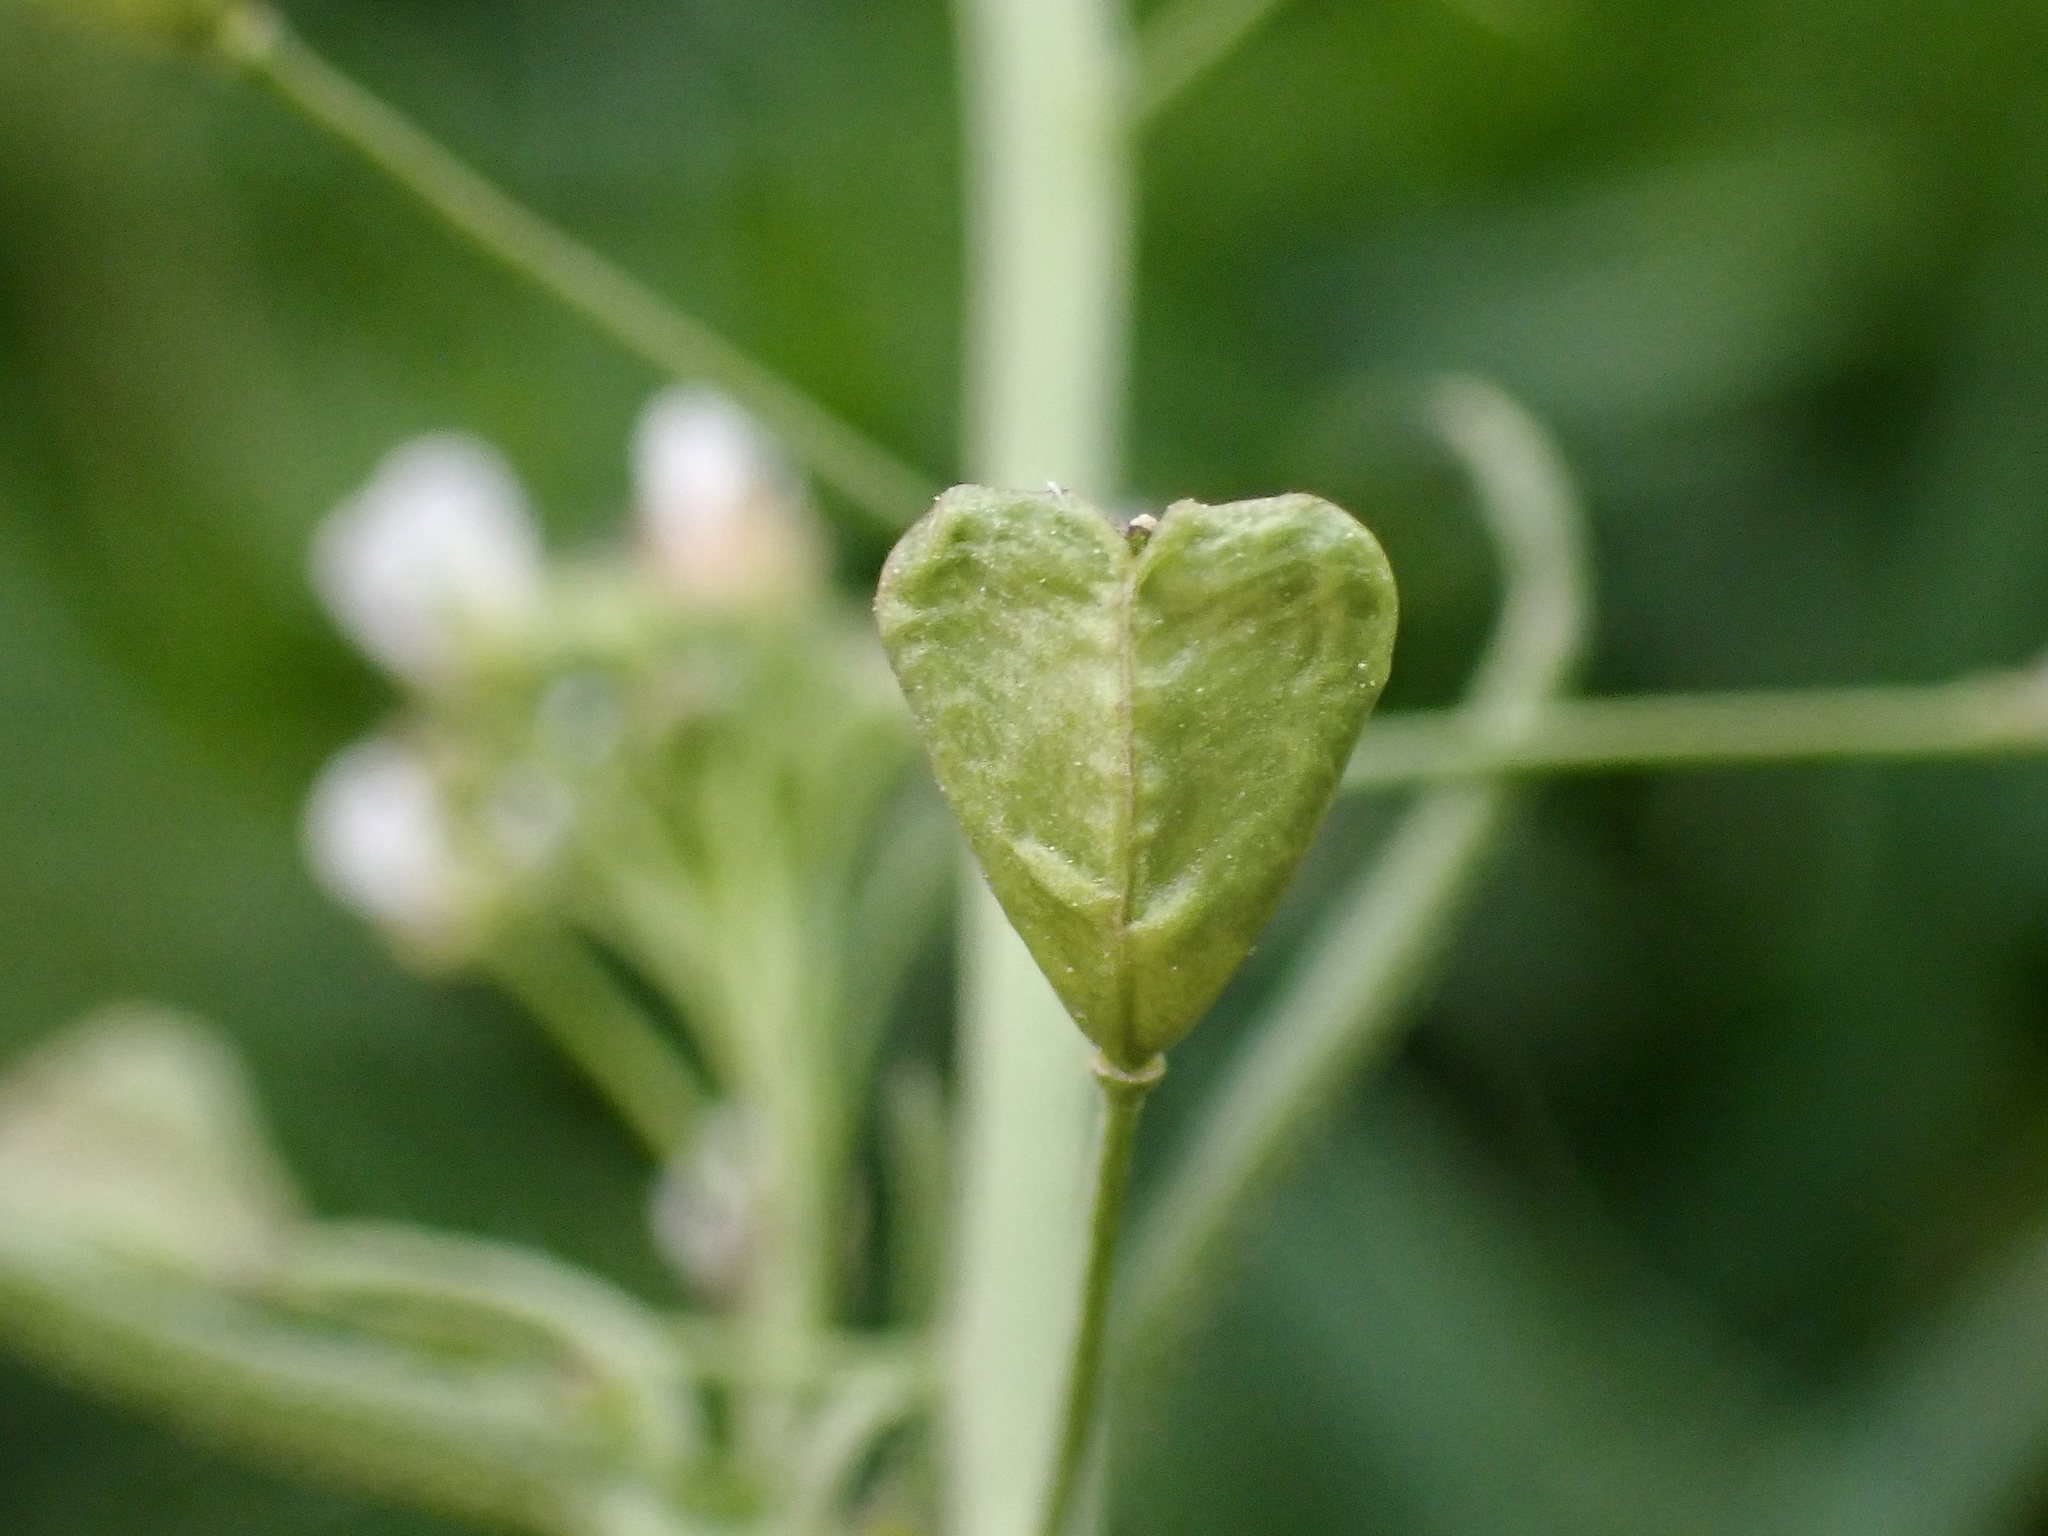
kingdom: Plantae
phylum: Tracheophyta
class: Magnoliopsida
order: Brassicales
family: Brassicaceae
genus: Capsella
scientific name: Capsella bursa-pastoris
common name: Shepherd's purse
